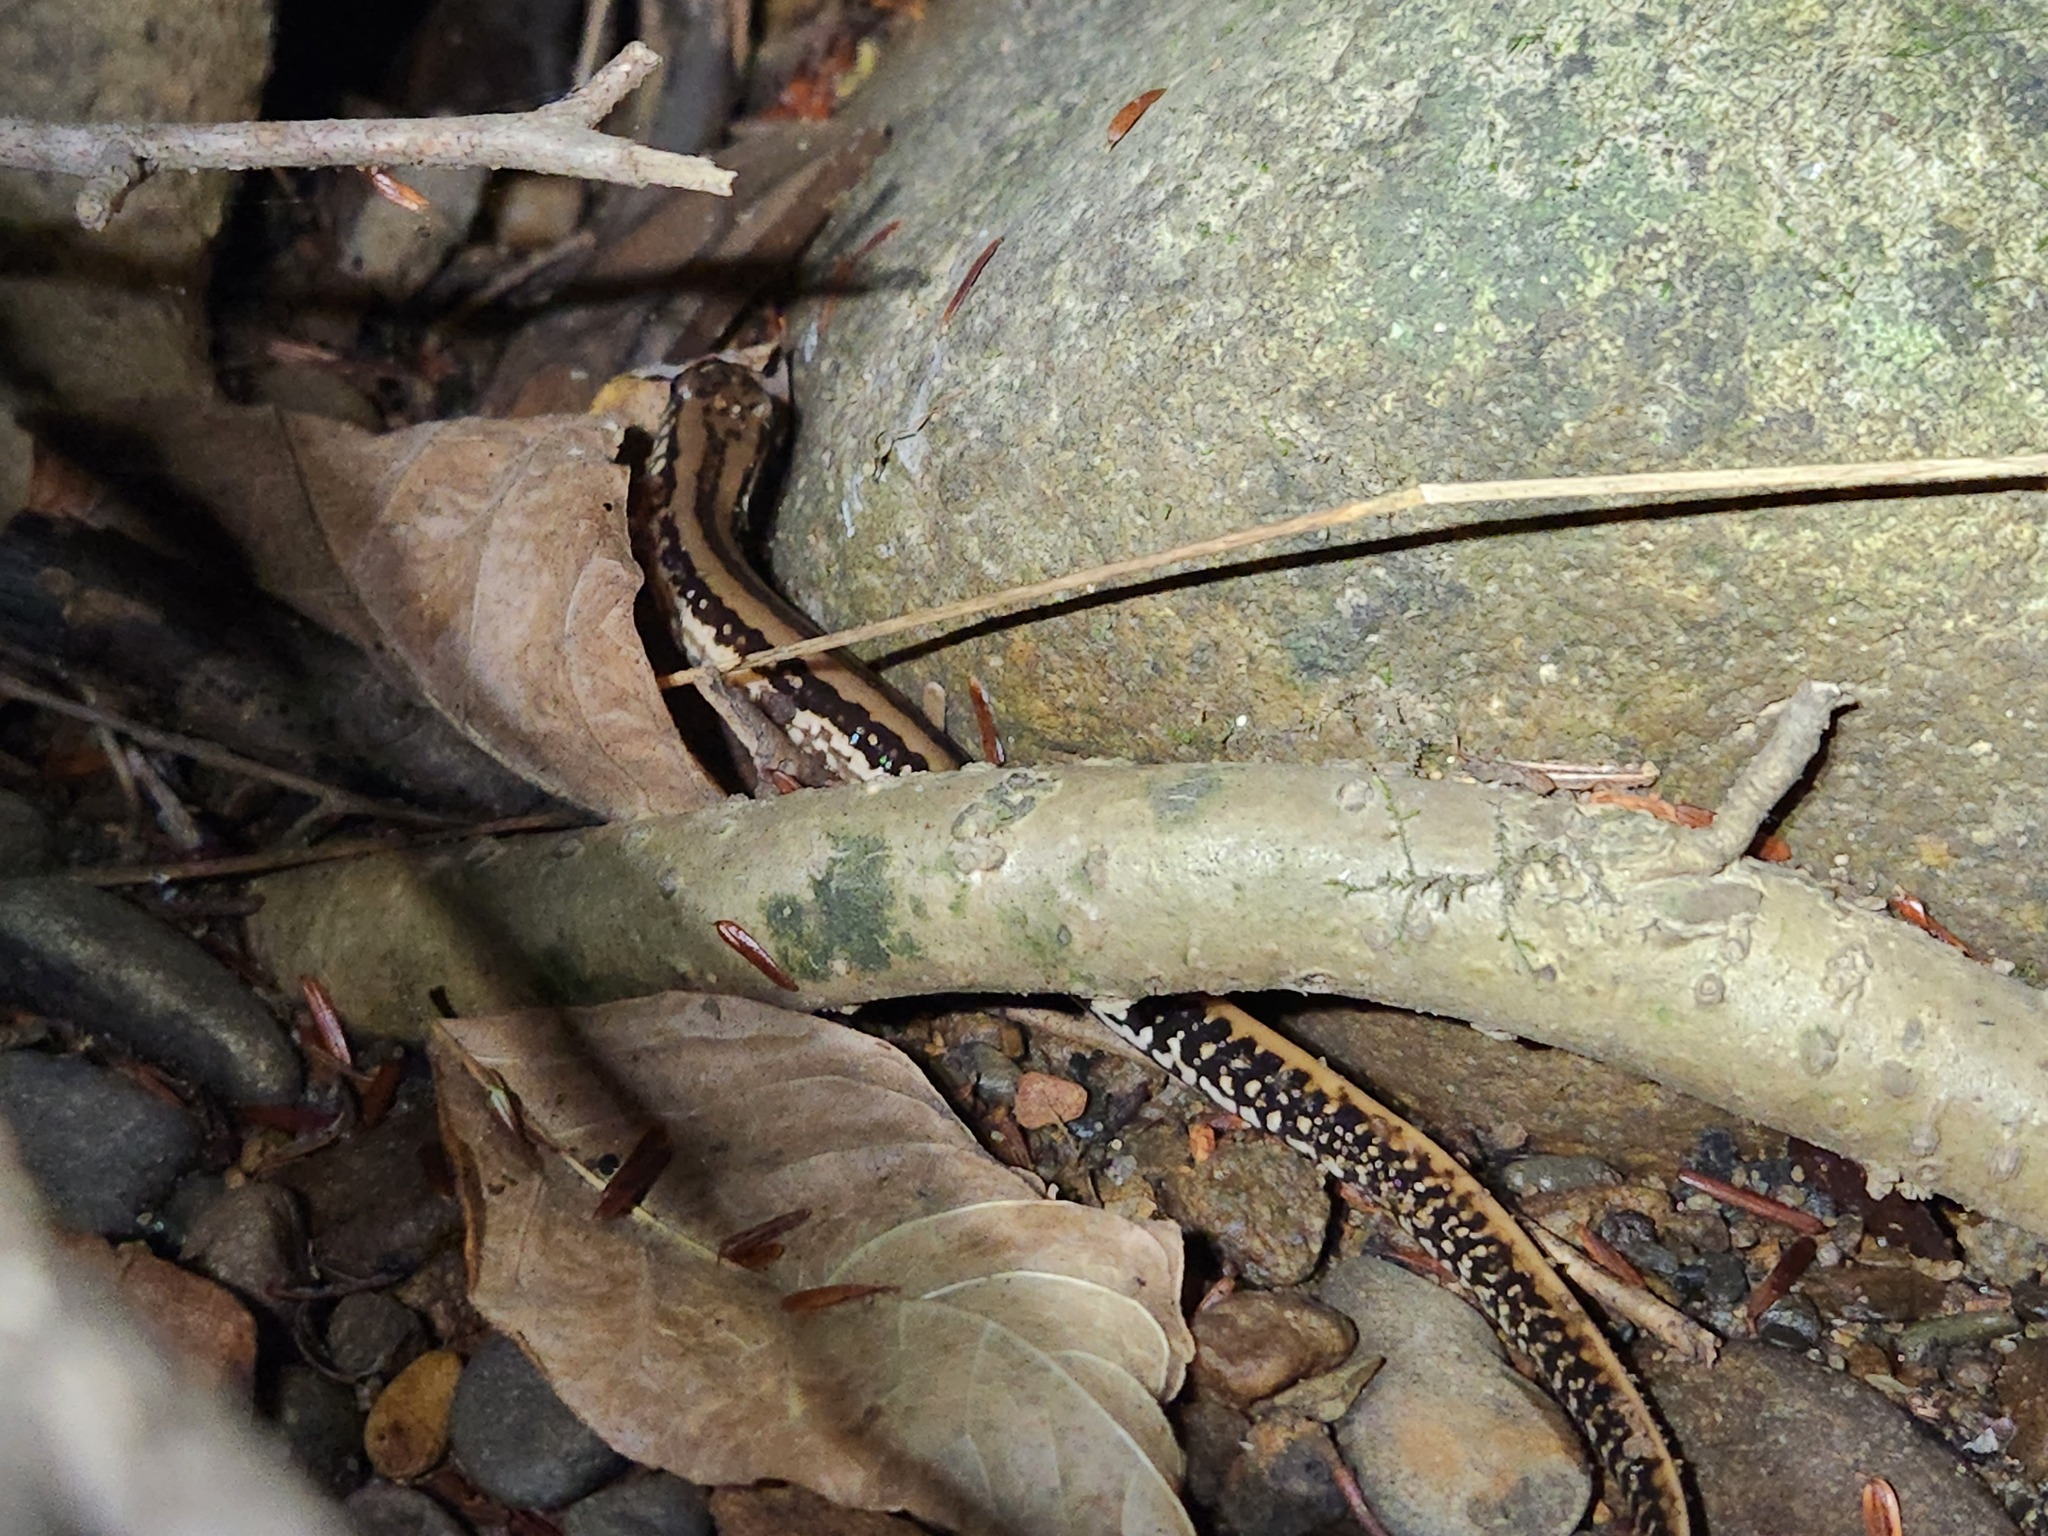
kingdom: Animalia
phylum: Chordata
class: Amphibia
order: Caudata
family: Plethodontidae
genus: Eurycea
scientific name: Eurycea guttolineata
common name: Three-lined salamander
